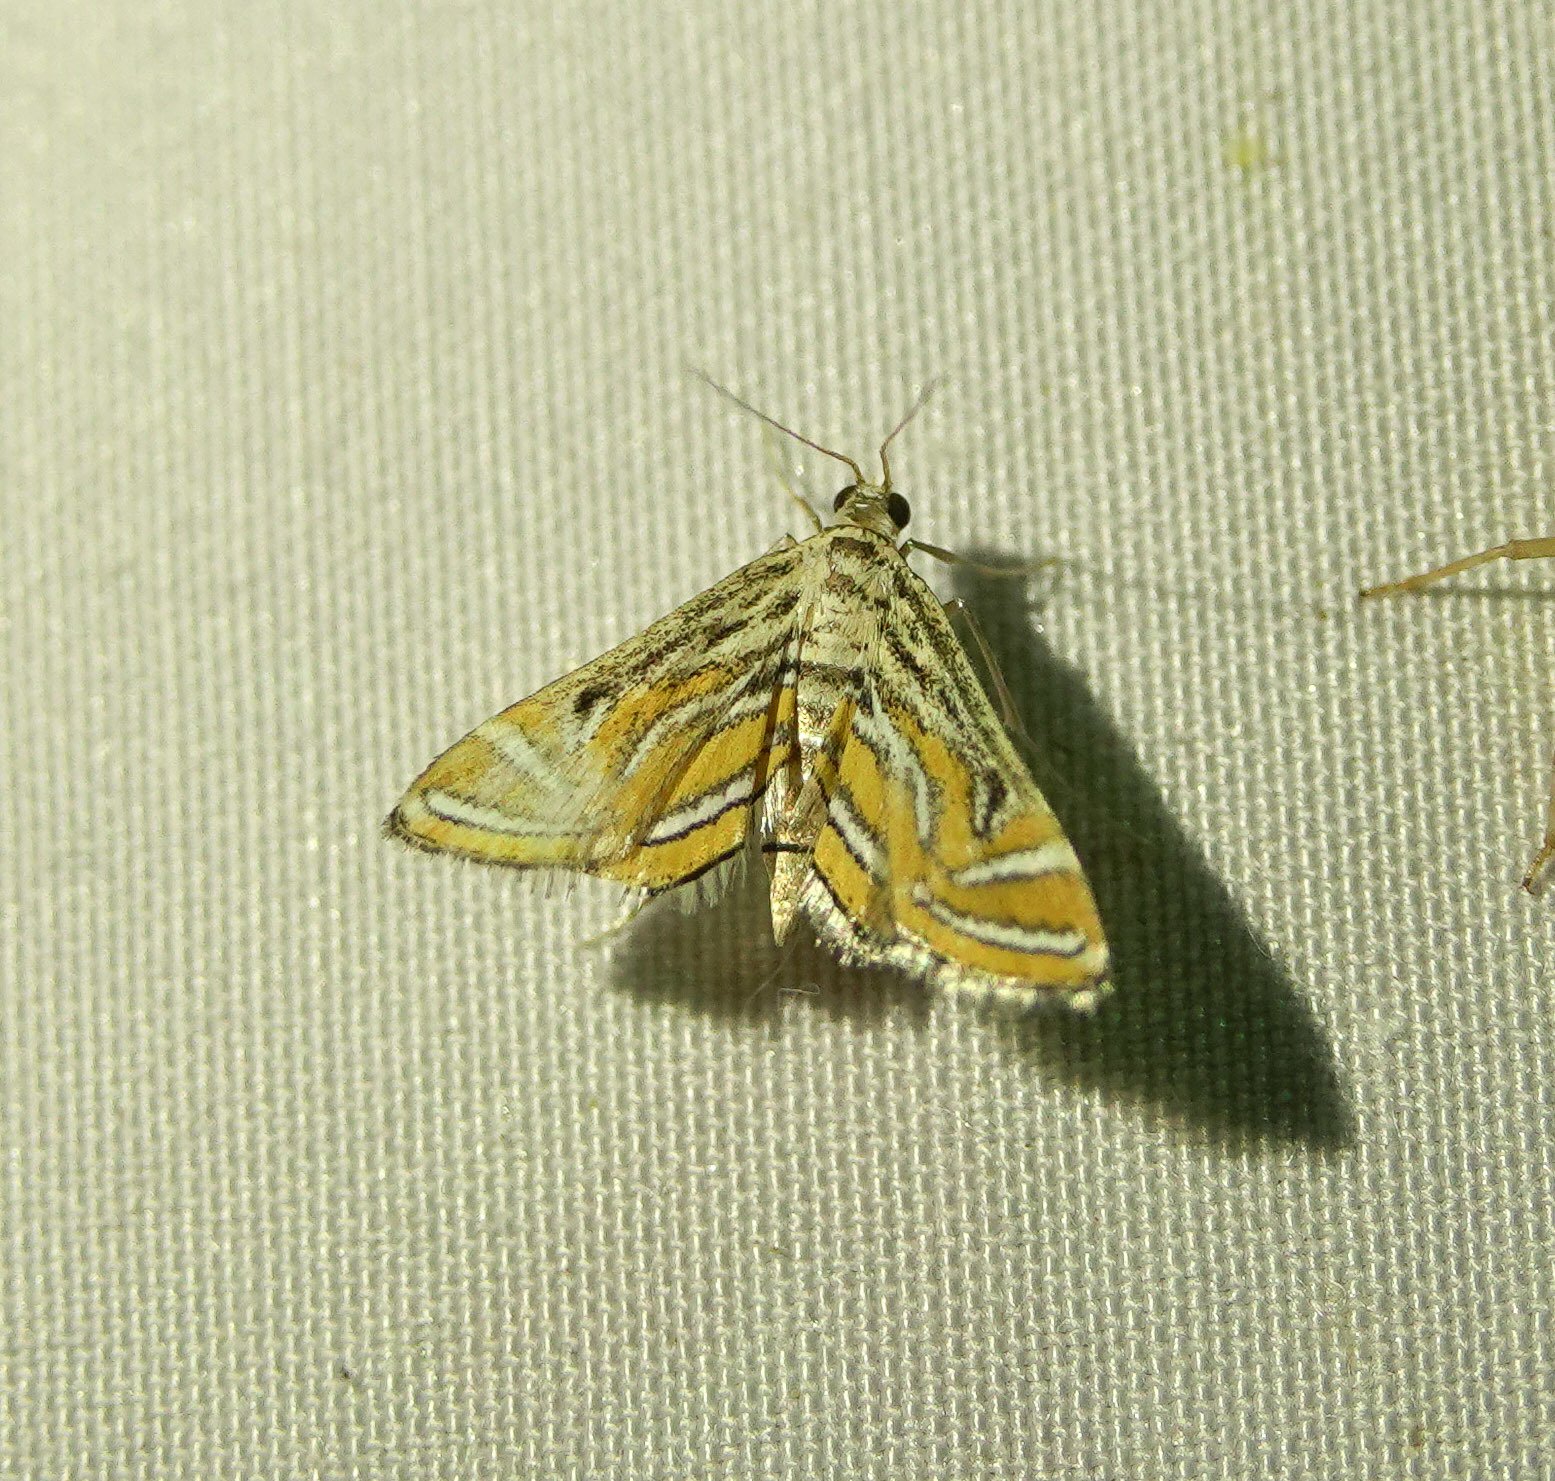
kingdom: Animalia
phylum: Arthropoda
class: Insecta
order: Lepidoptera
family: Crambidae
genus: Parapoynx
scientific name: Parapoynx bilinealis
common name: Streaked china-mark
